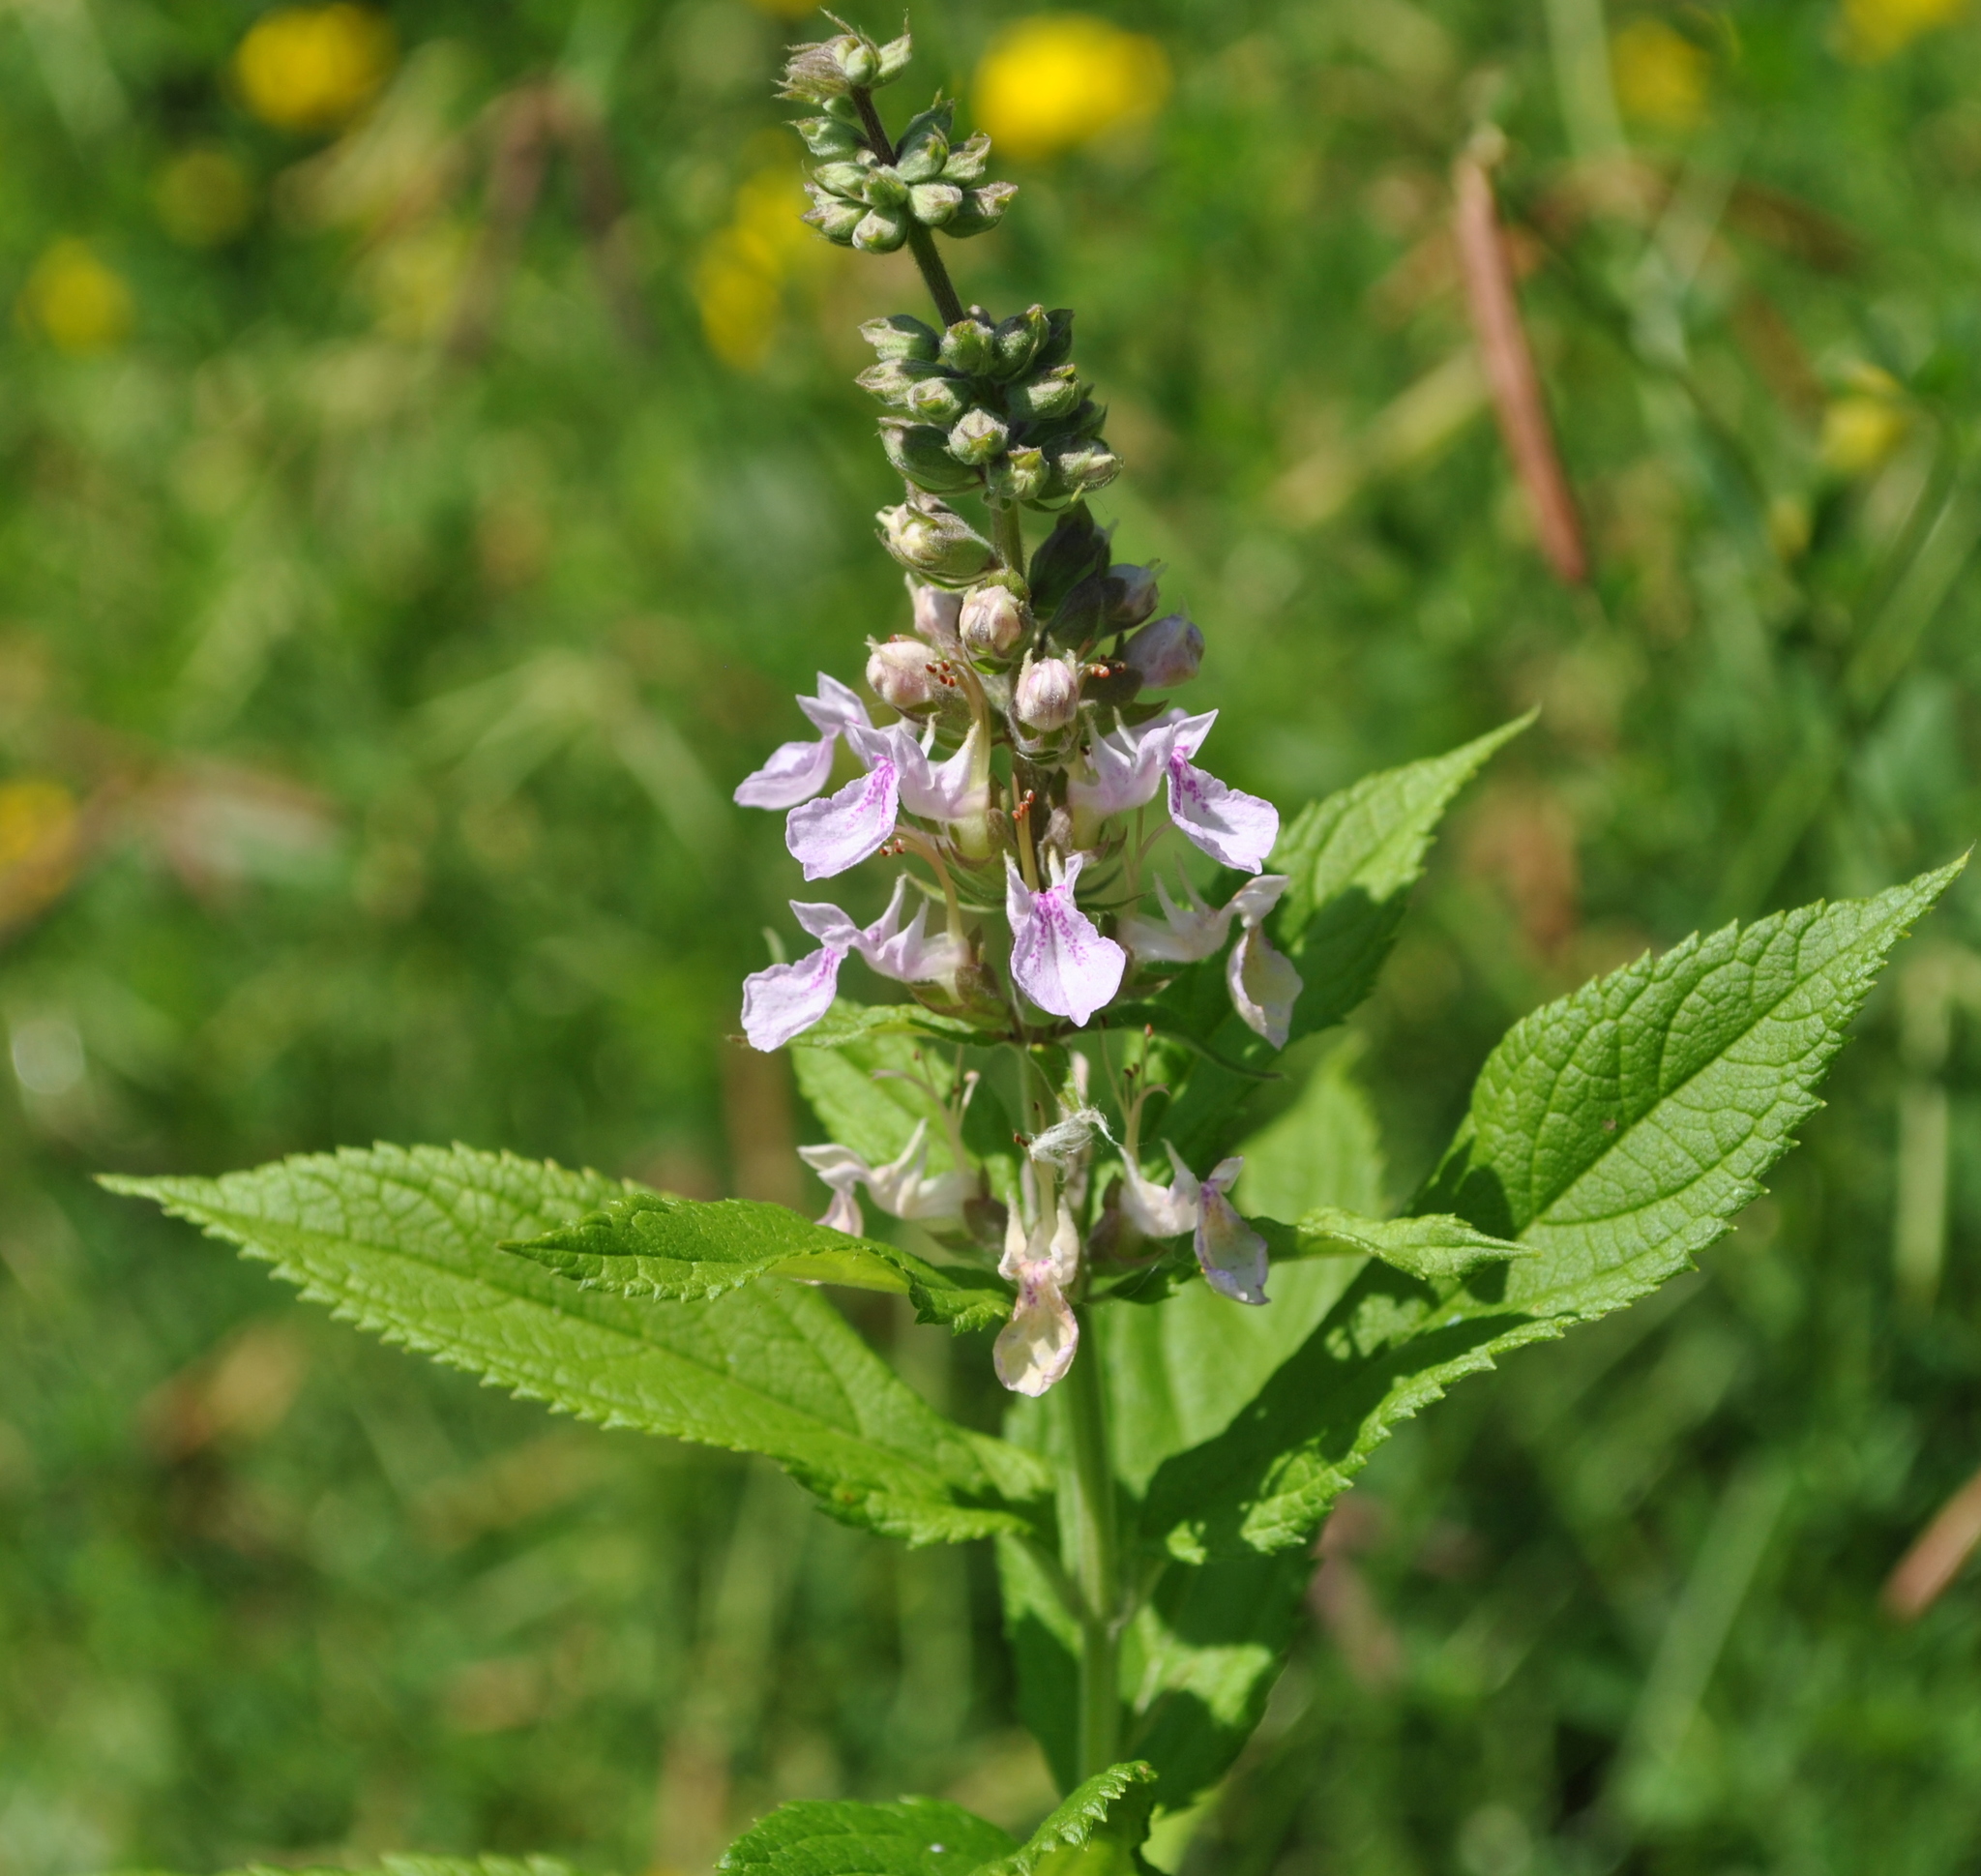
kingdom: Plantae
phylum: Tracheophyta
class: Magnoliopsida
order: Lamiales
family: Lamiaceae
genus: Teucrium
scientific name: Teucrium canadense
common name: American germander
